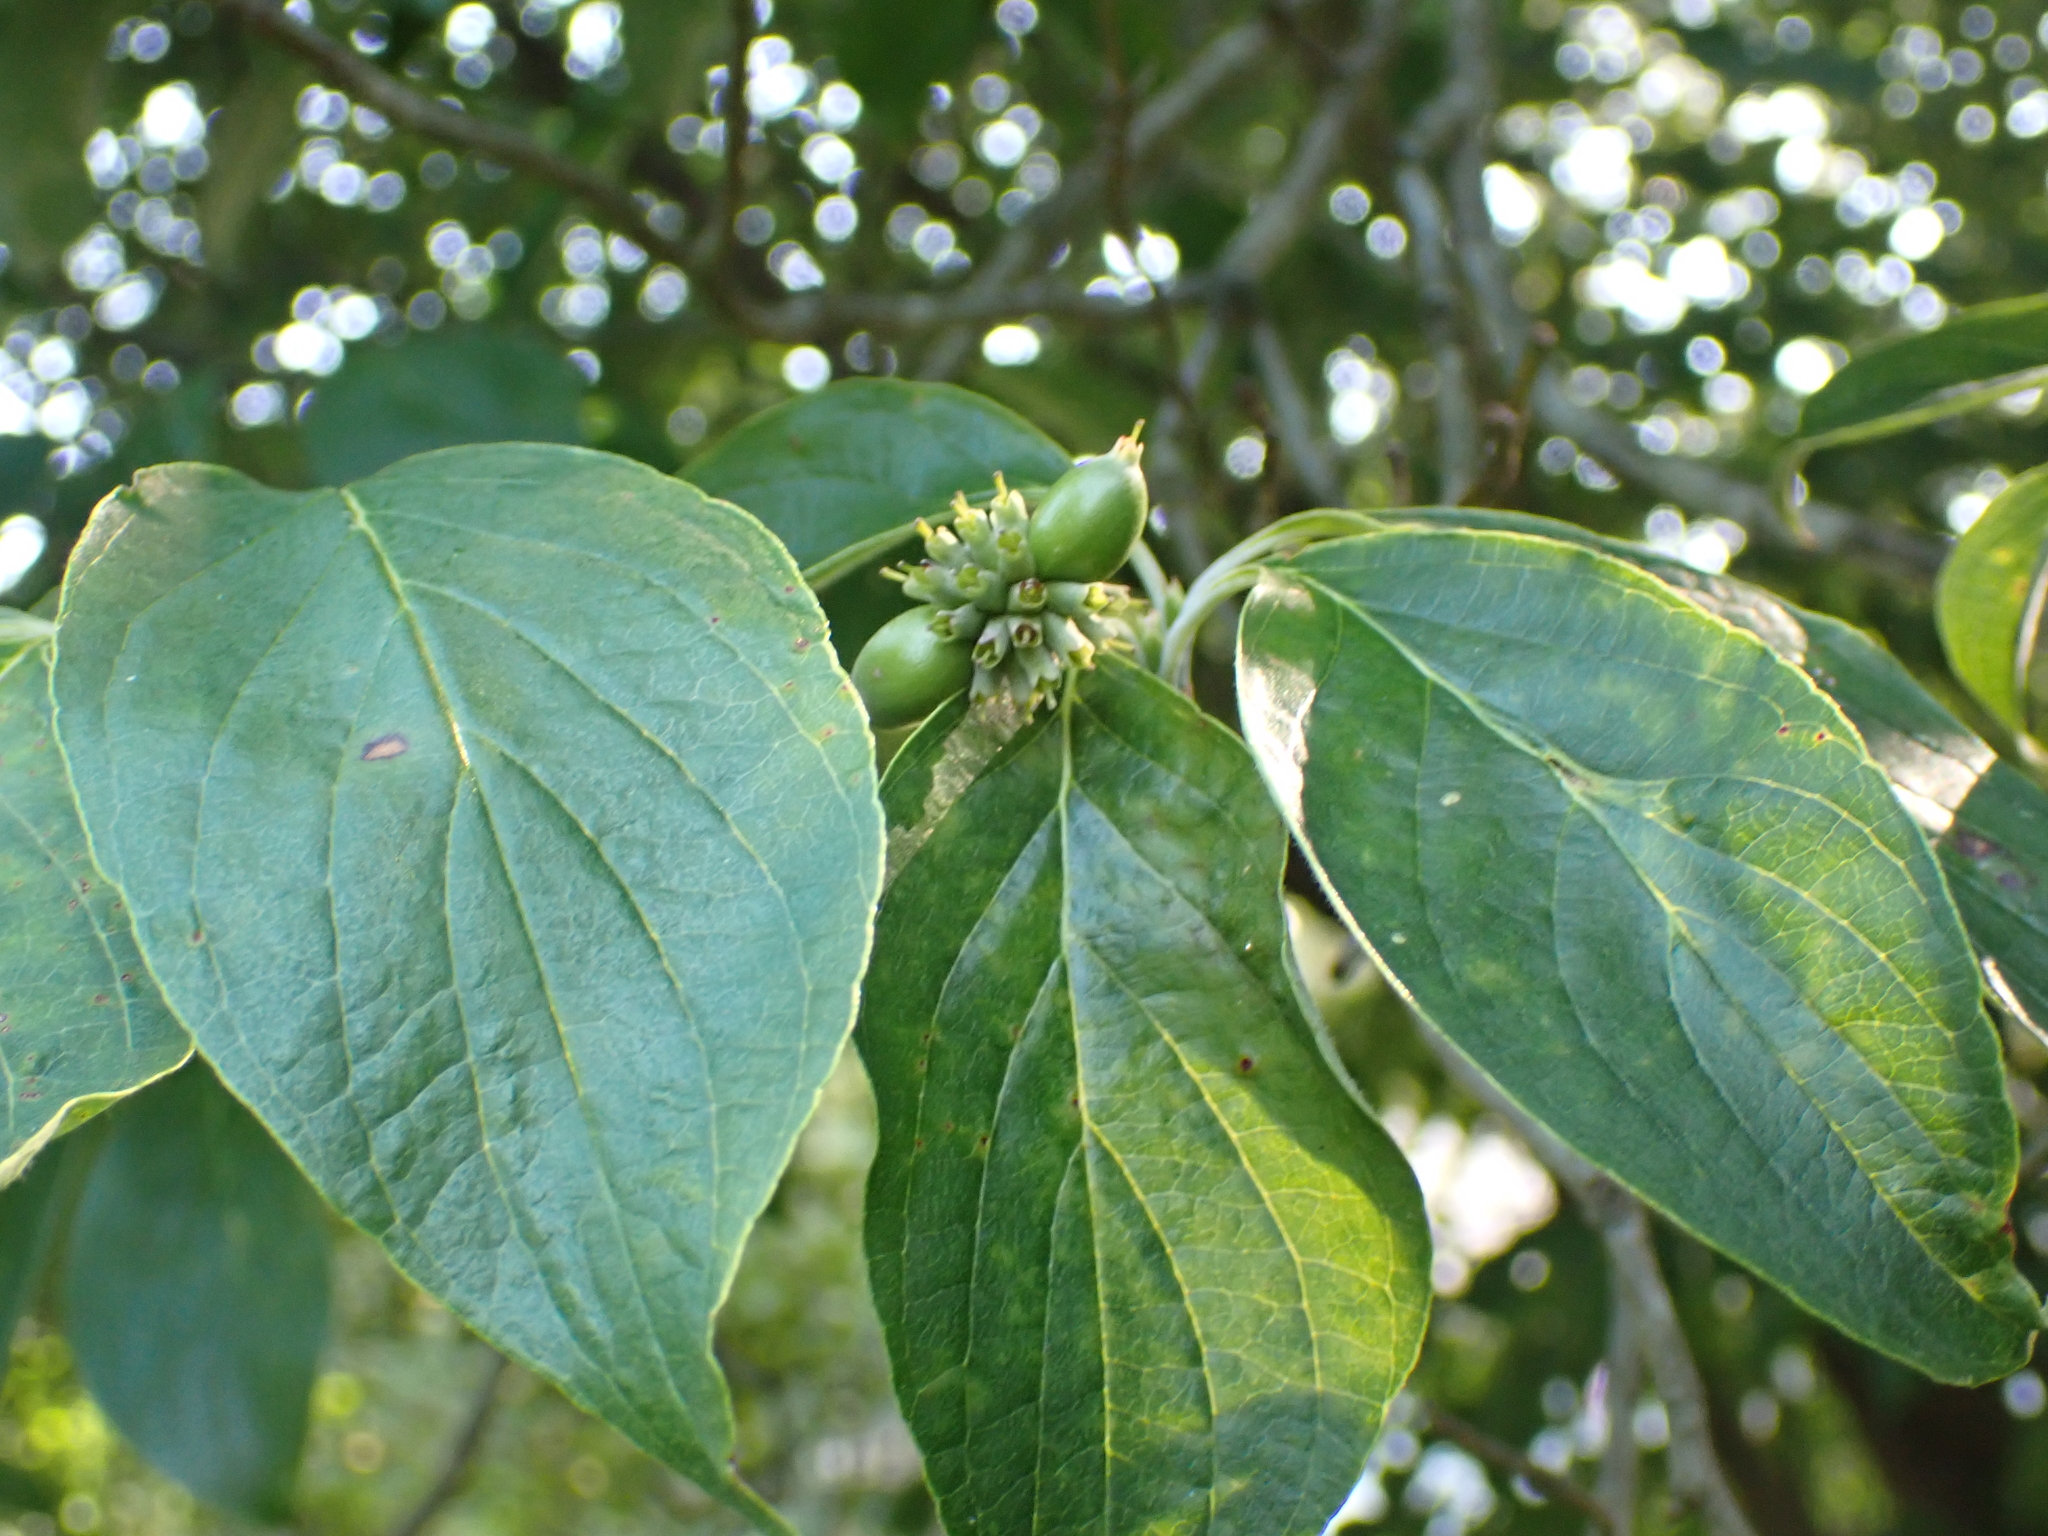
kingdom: Plantae
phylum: Tracheophyta
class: Magnoliopsida
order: Cornales
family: Cornaceae
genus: Cornus
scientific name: Cornus florida
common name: Flowering dogwood
